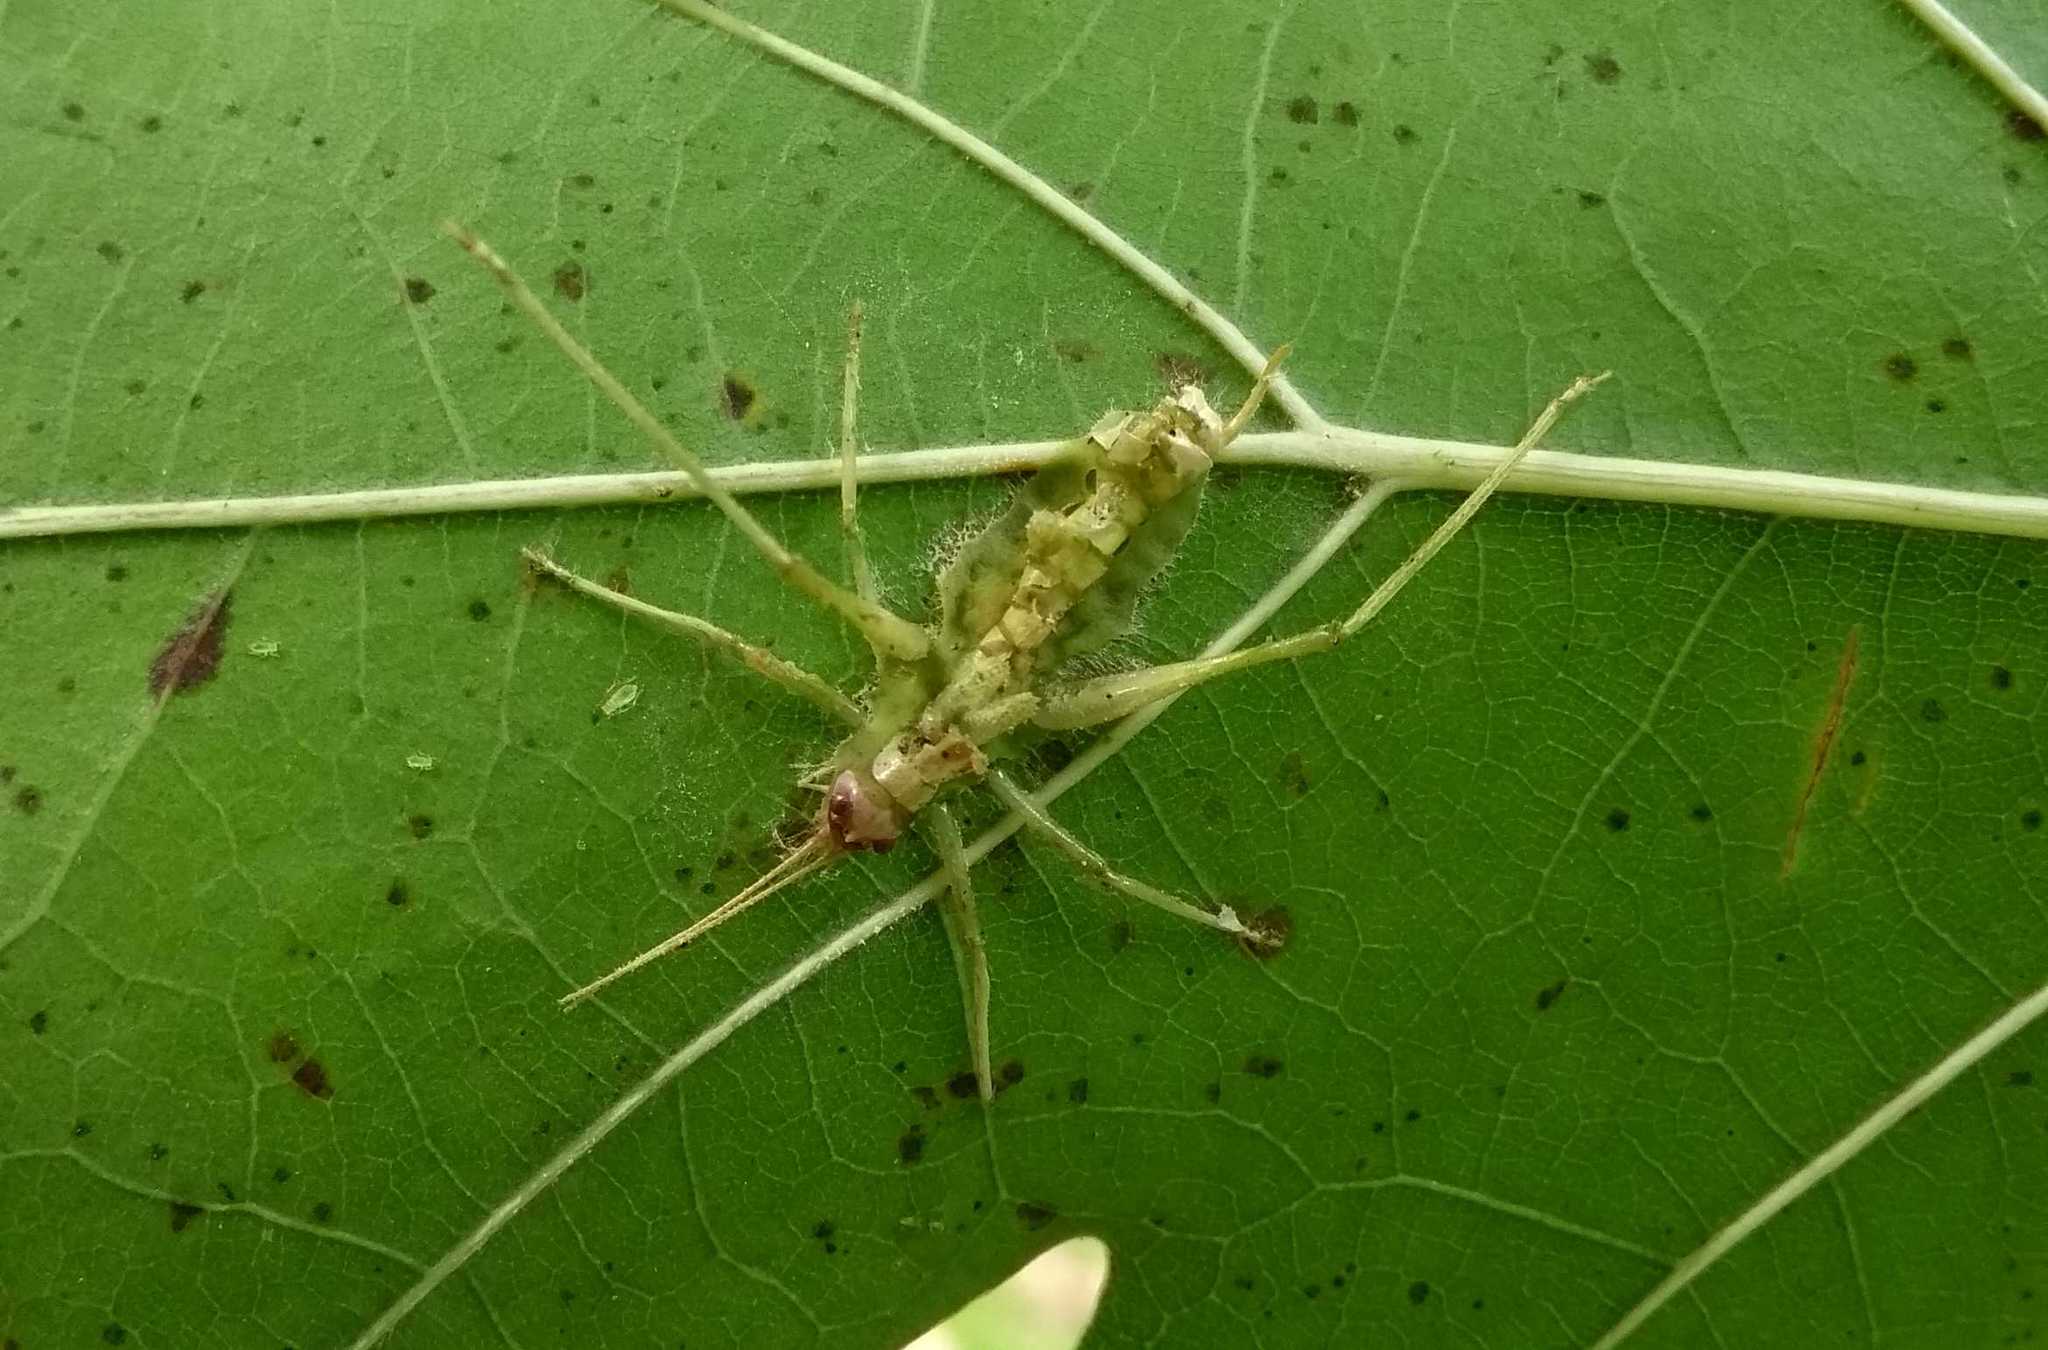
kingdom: Animalia
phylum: Arthropoda
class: Insecta
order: Orthoptera
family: Tettigoniidae
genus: Meconema
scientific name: Meconema meridionale
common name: Southern oak bush-cricket
